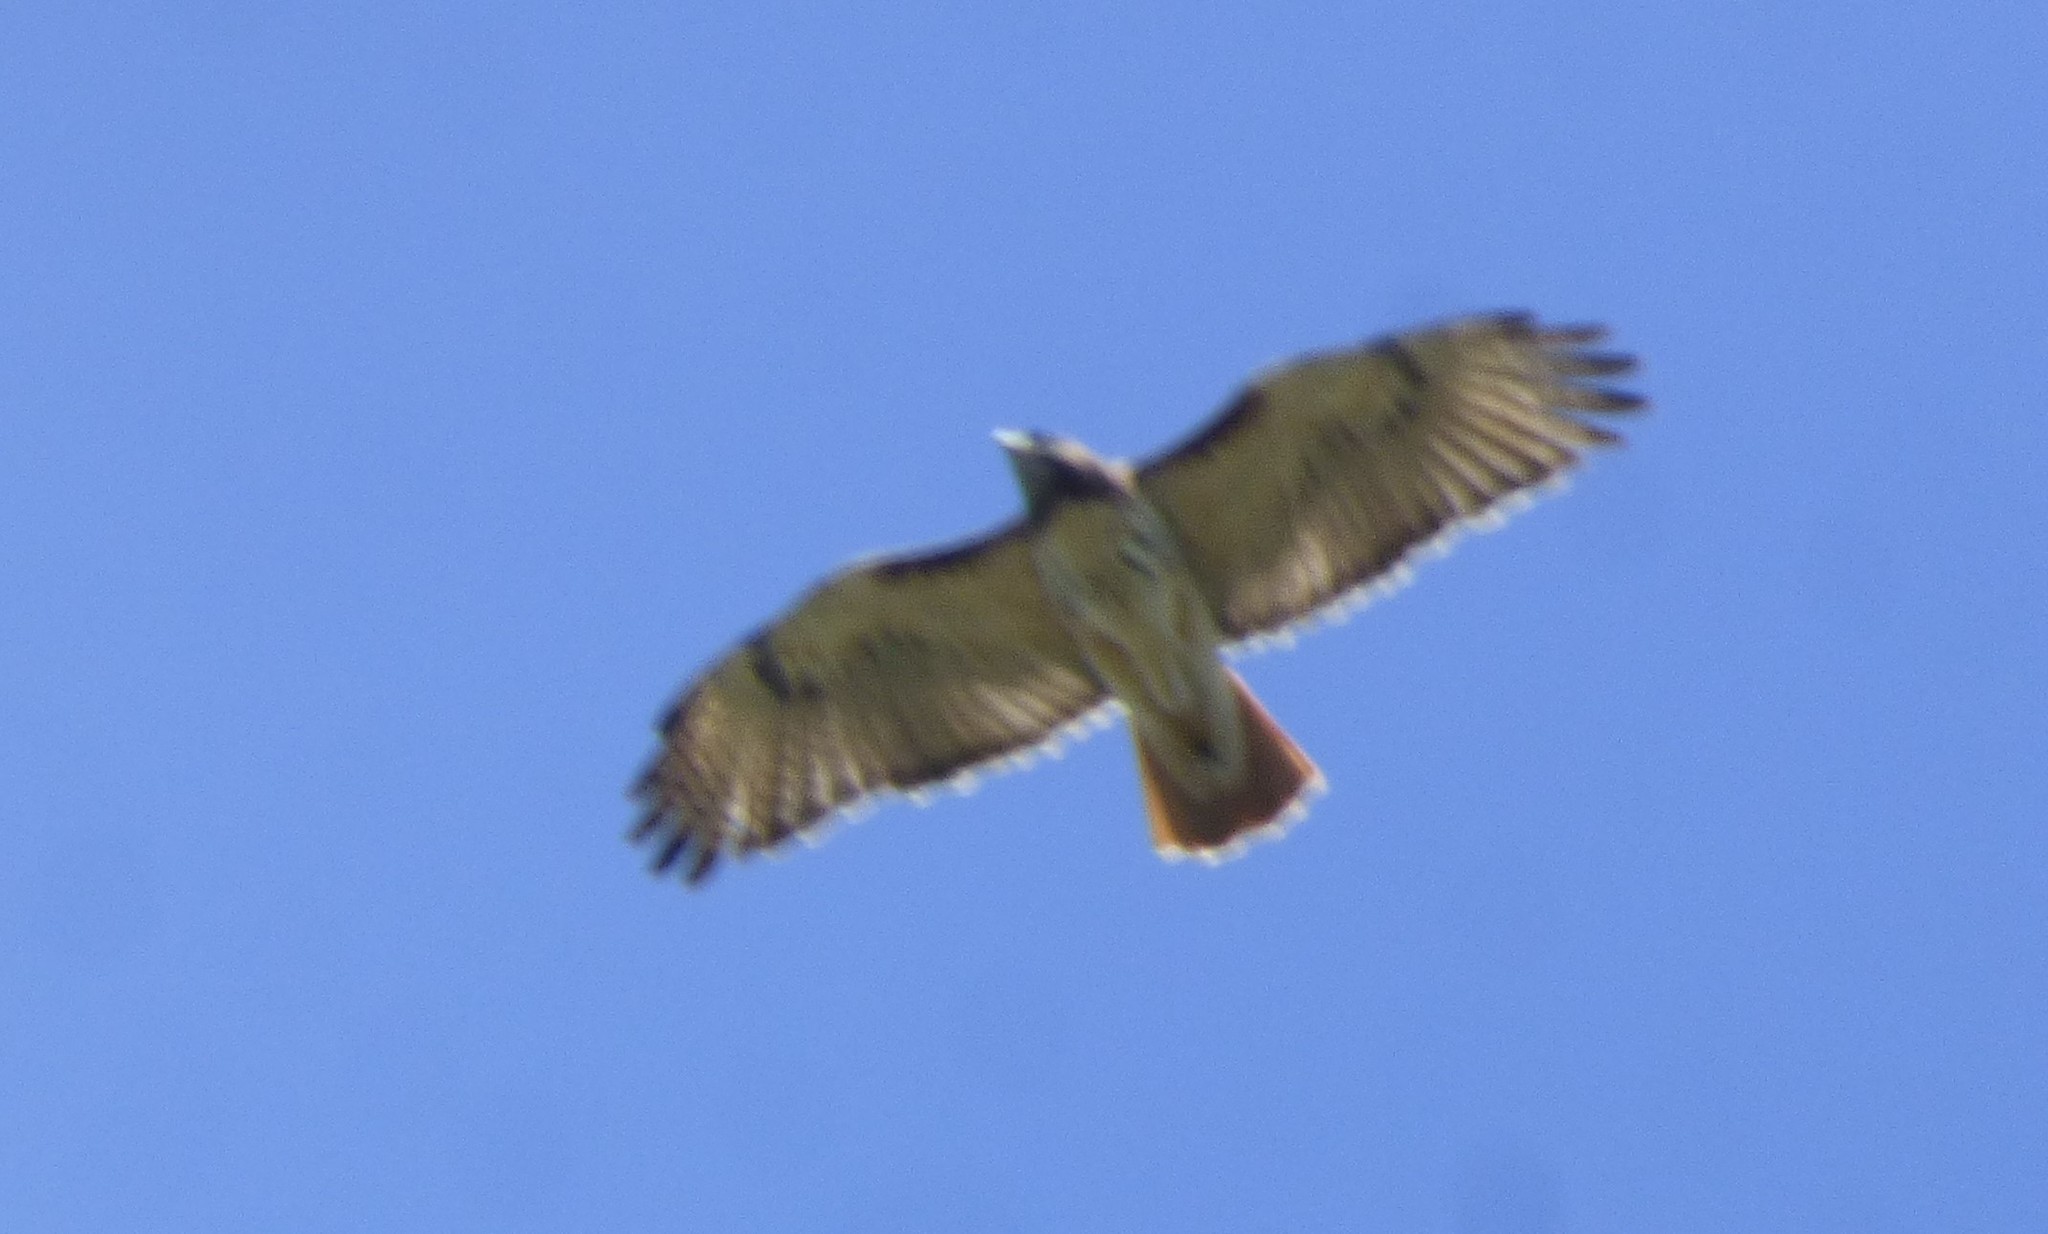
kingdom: Animalia
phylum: Chordata
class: Aves
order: Accipitriformes
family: Accipitridae
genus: Buteo
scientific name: Buteo jamaicensis
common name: Red-tailed hawk
